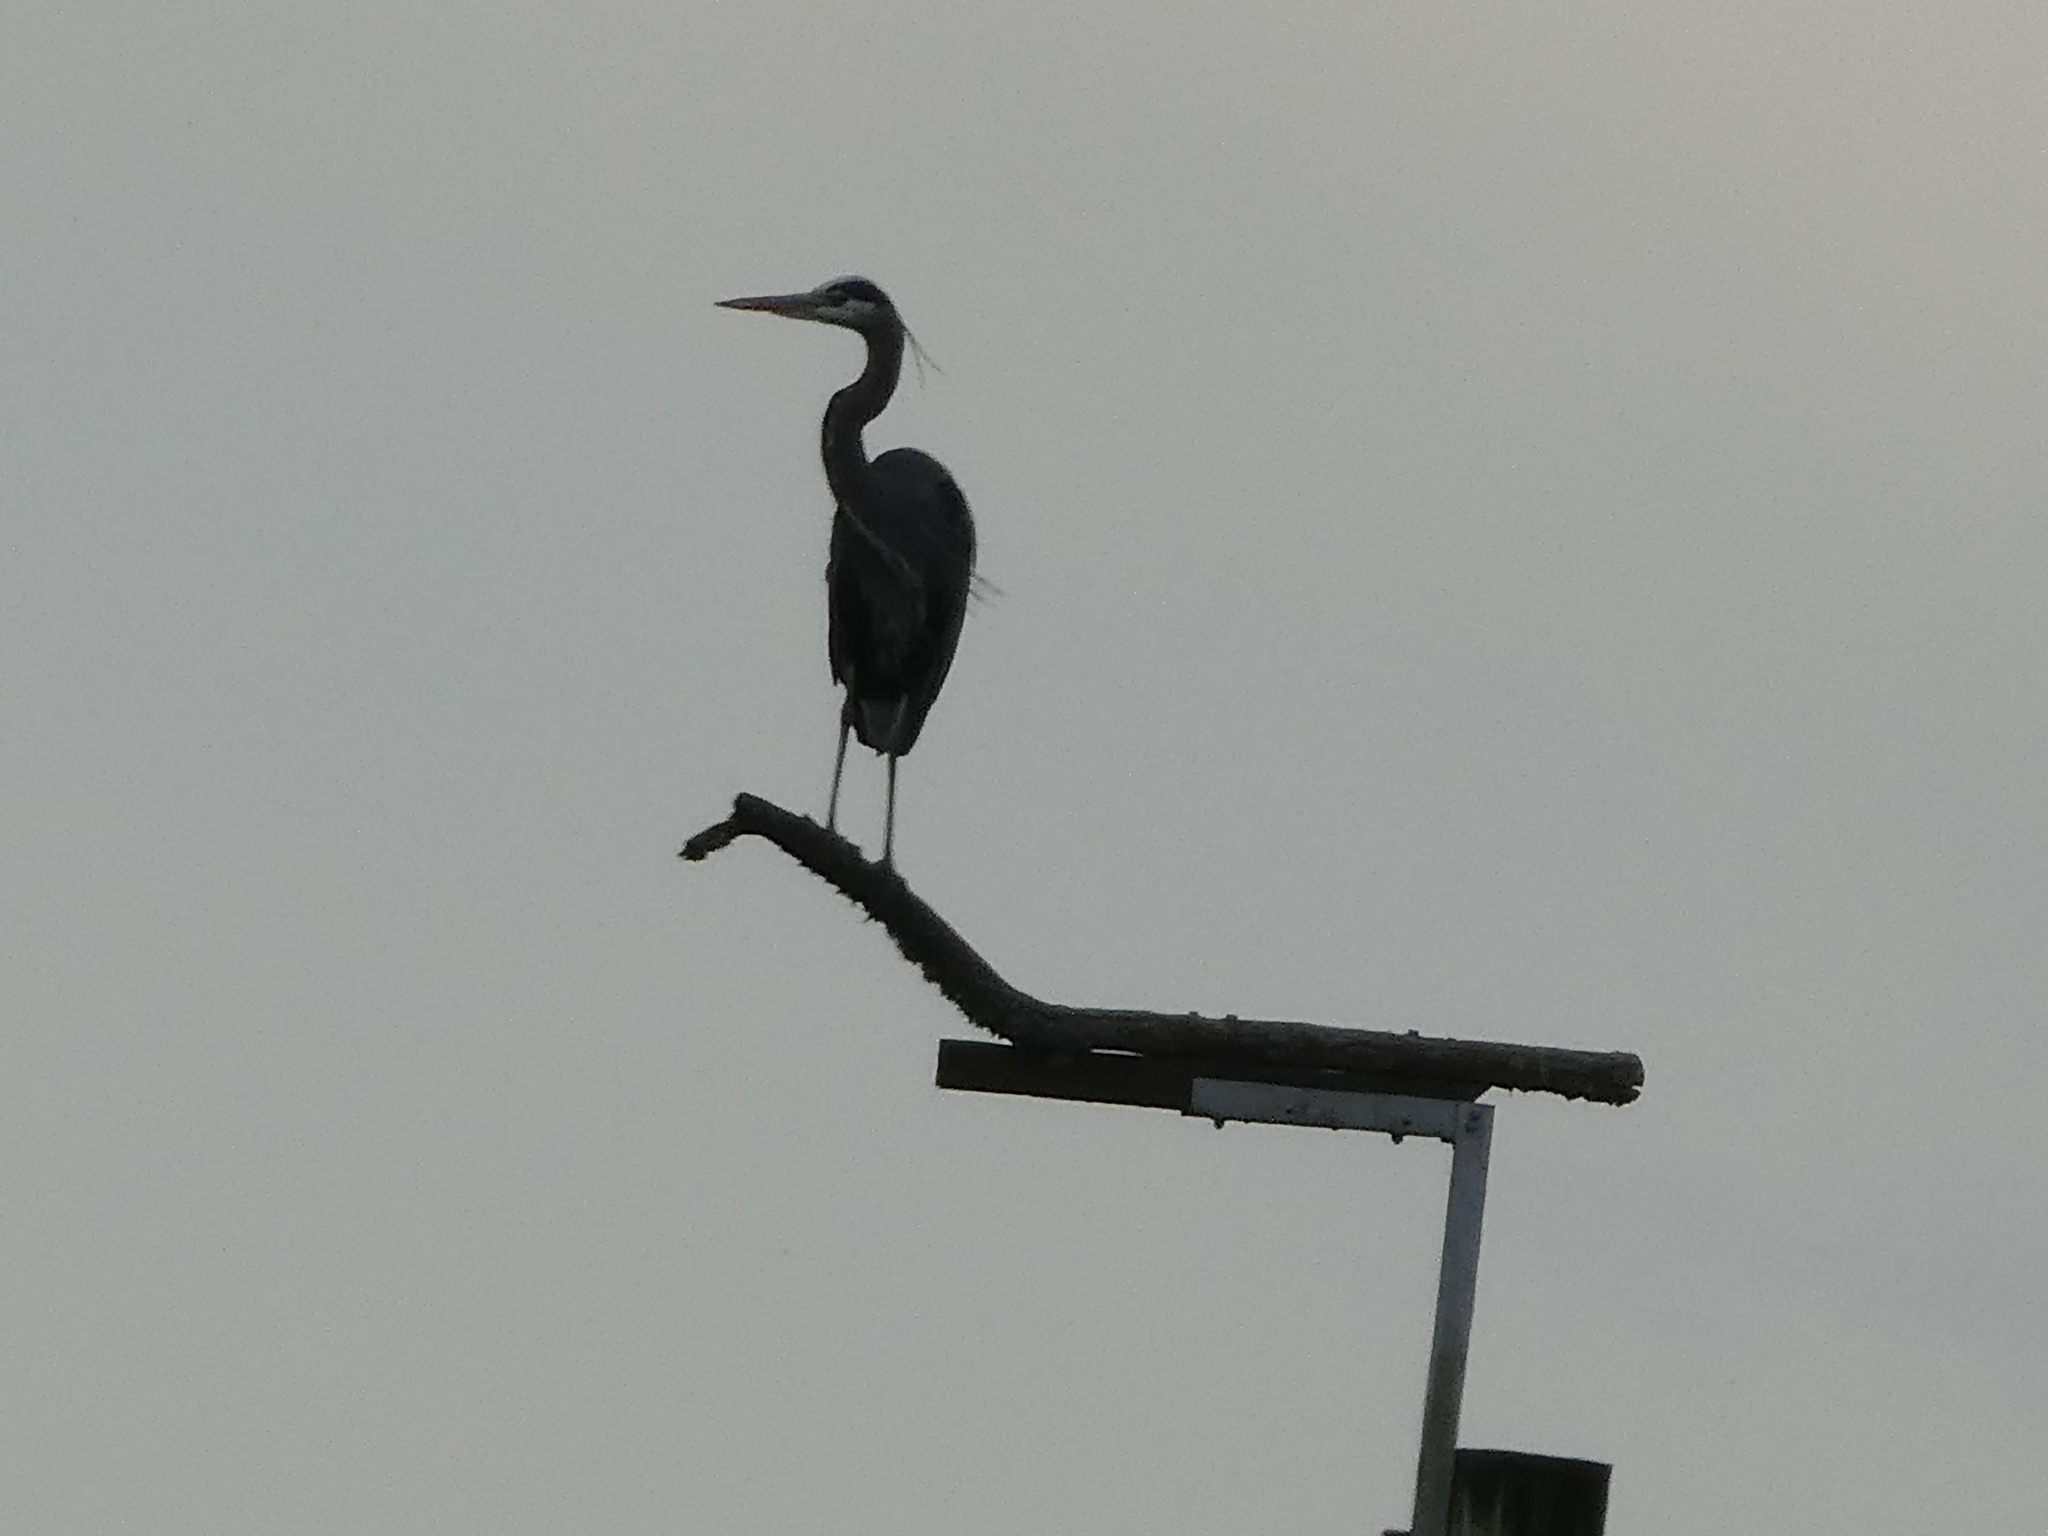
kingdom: Animalia
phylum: Chordata
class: Aves
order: Pelecaniformes
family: Ardeidae
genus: Ardea
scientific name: Ardea herodias
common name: Great blue heron
